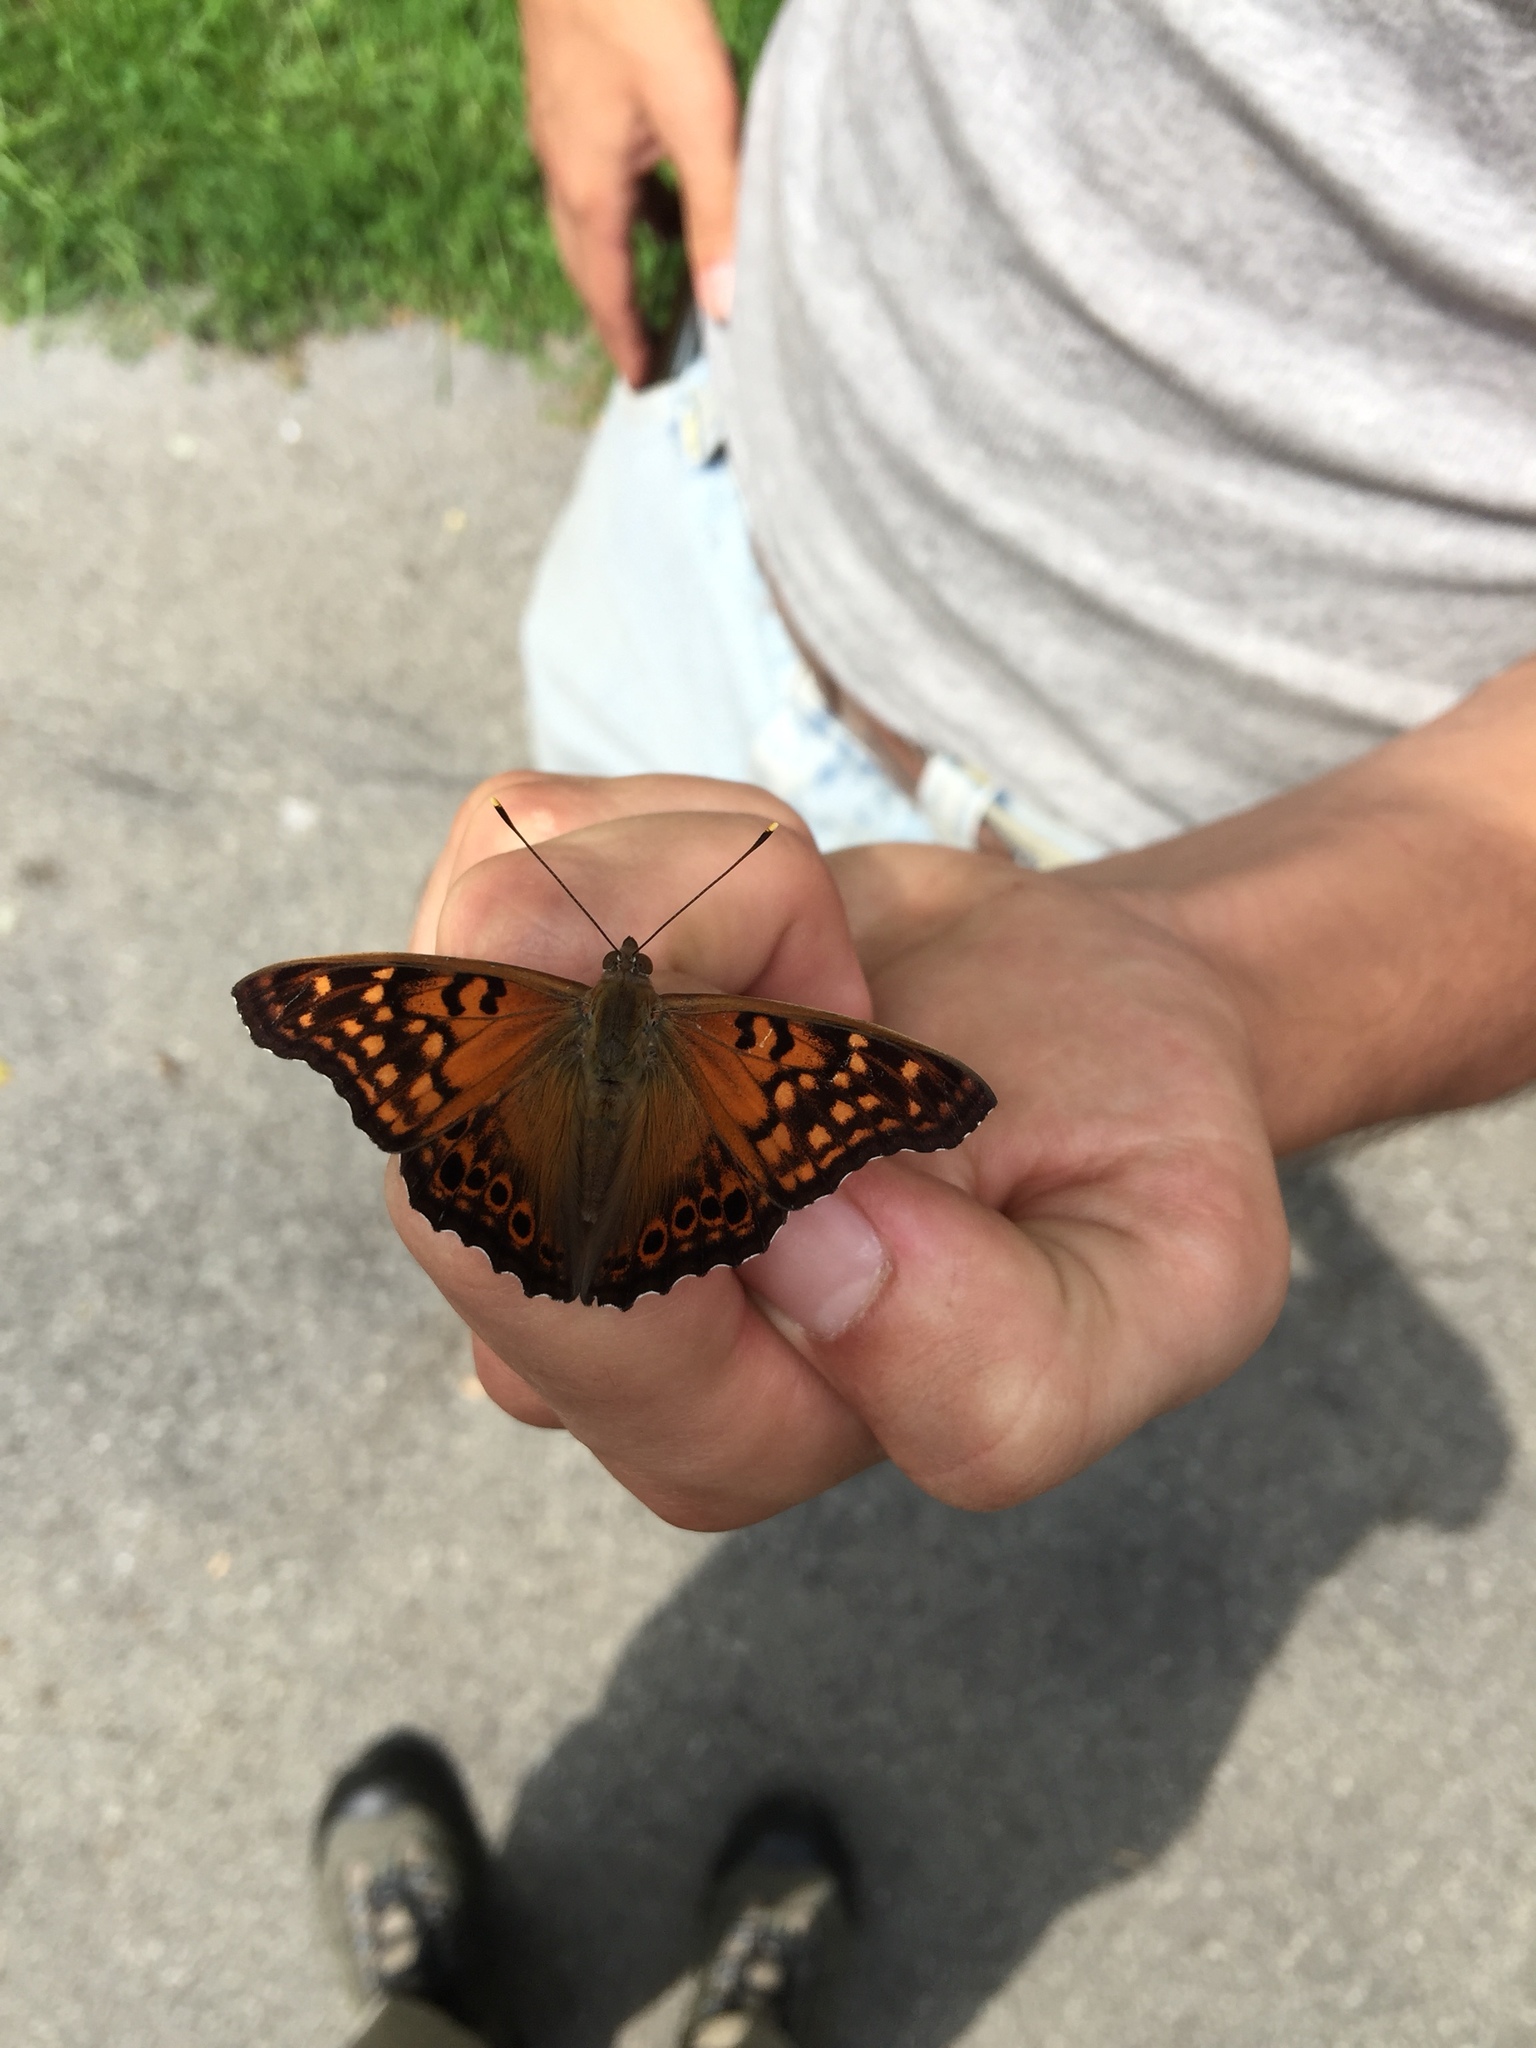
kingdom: Animalia
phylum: Arthropoda
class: Insecta
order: Lepidoptera
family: Nymphalidae
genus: Asterocampa
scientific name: Asterocampa clyton
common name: Tawny emperor
